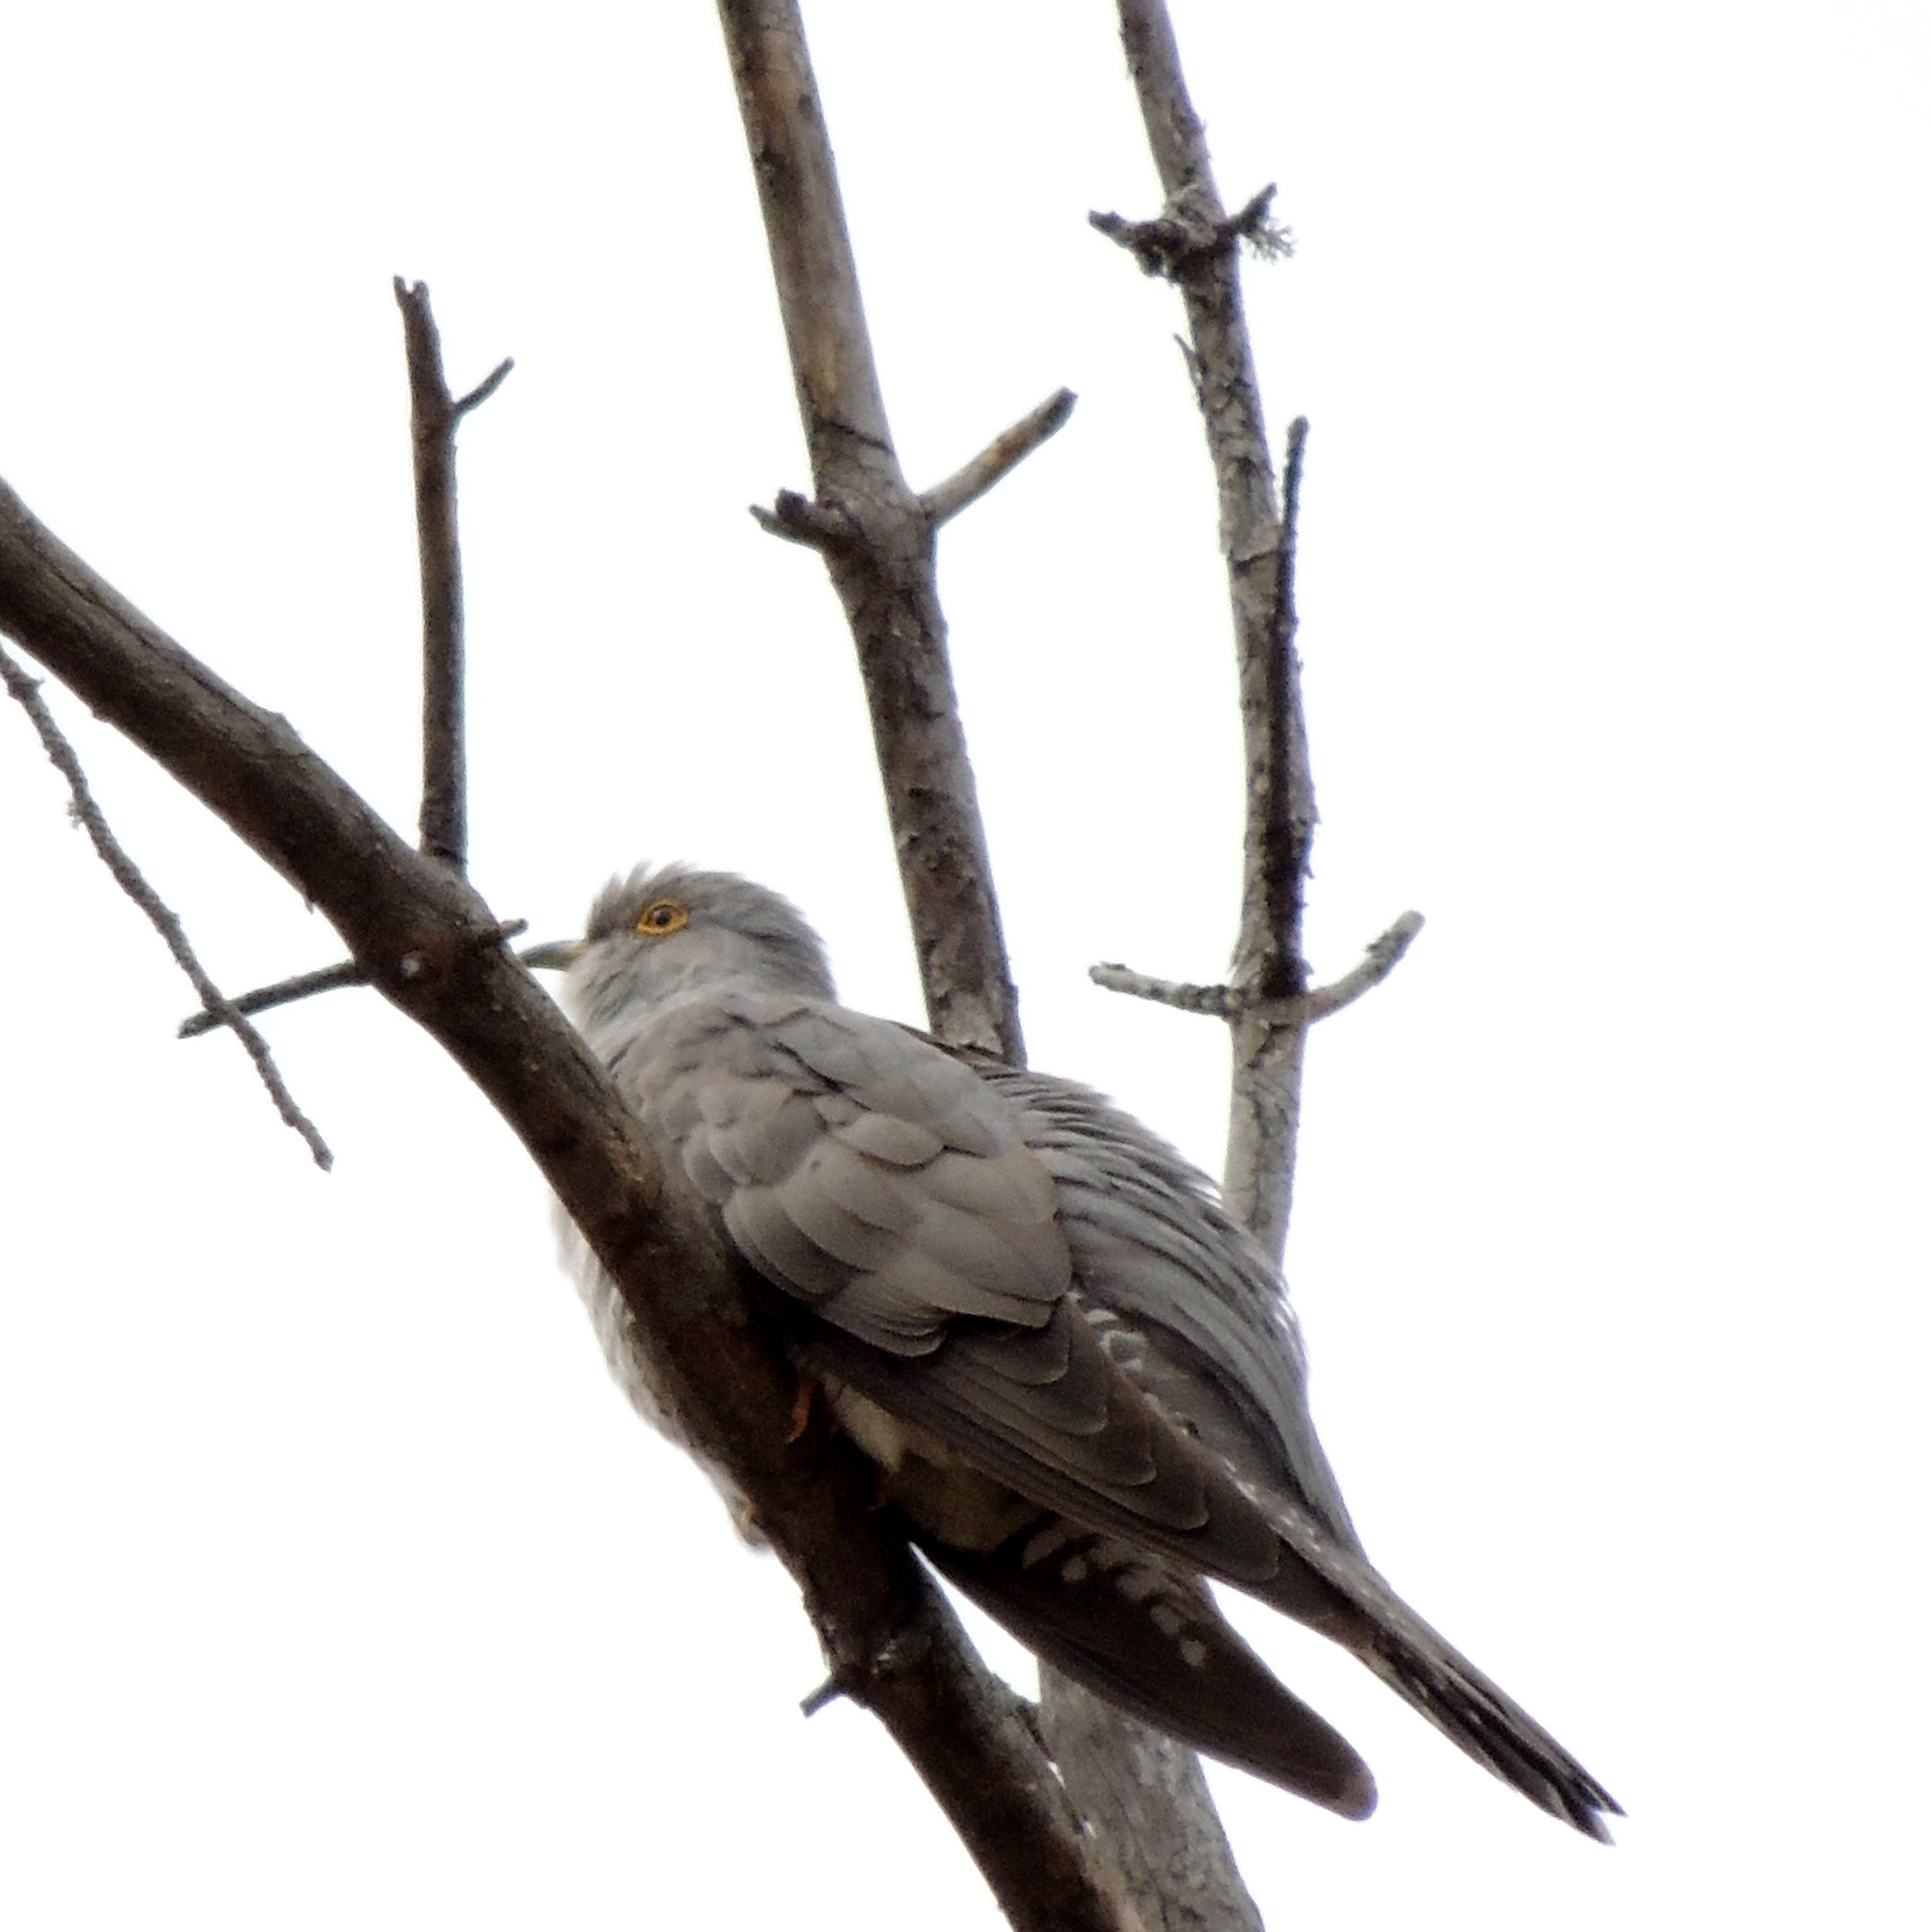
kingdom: Animalia
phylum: Chordata
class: Aves
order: Cuculiformes
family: Cuculidae
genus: Cuculus
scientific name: Cuculus canorus
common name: Common cuckoo
